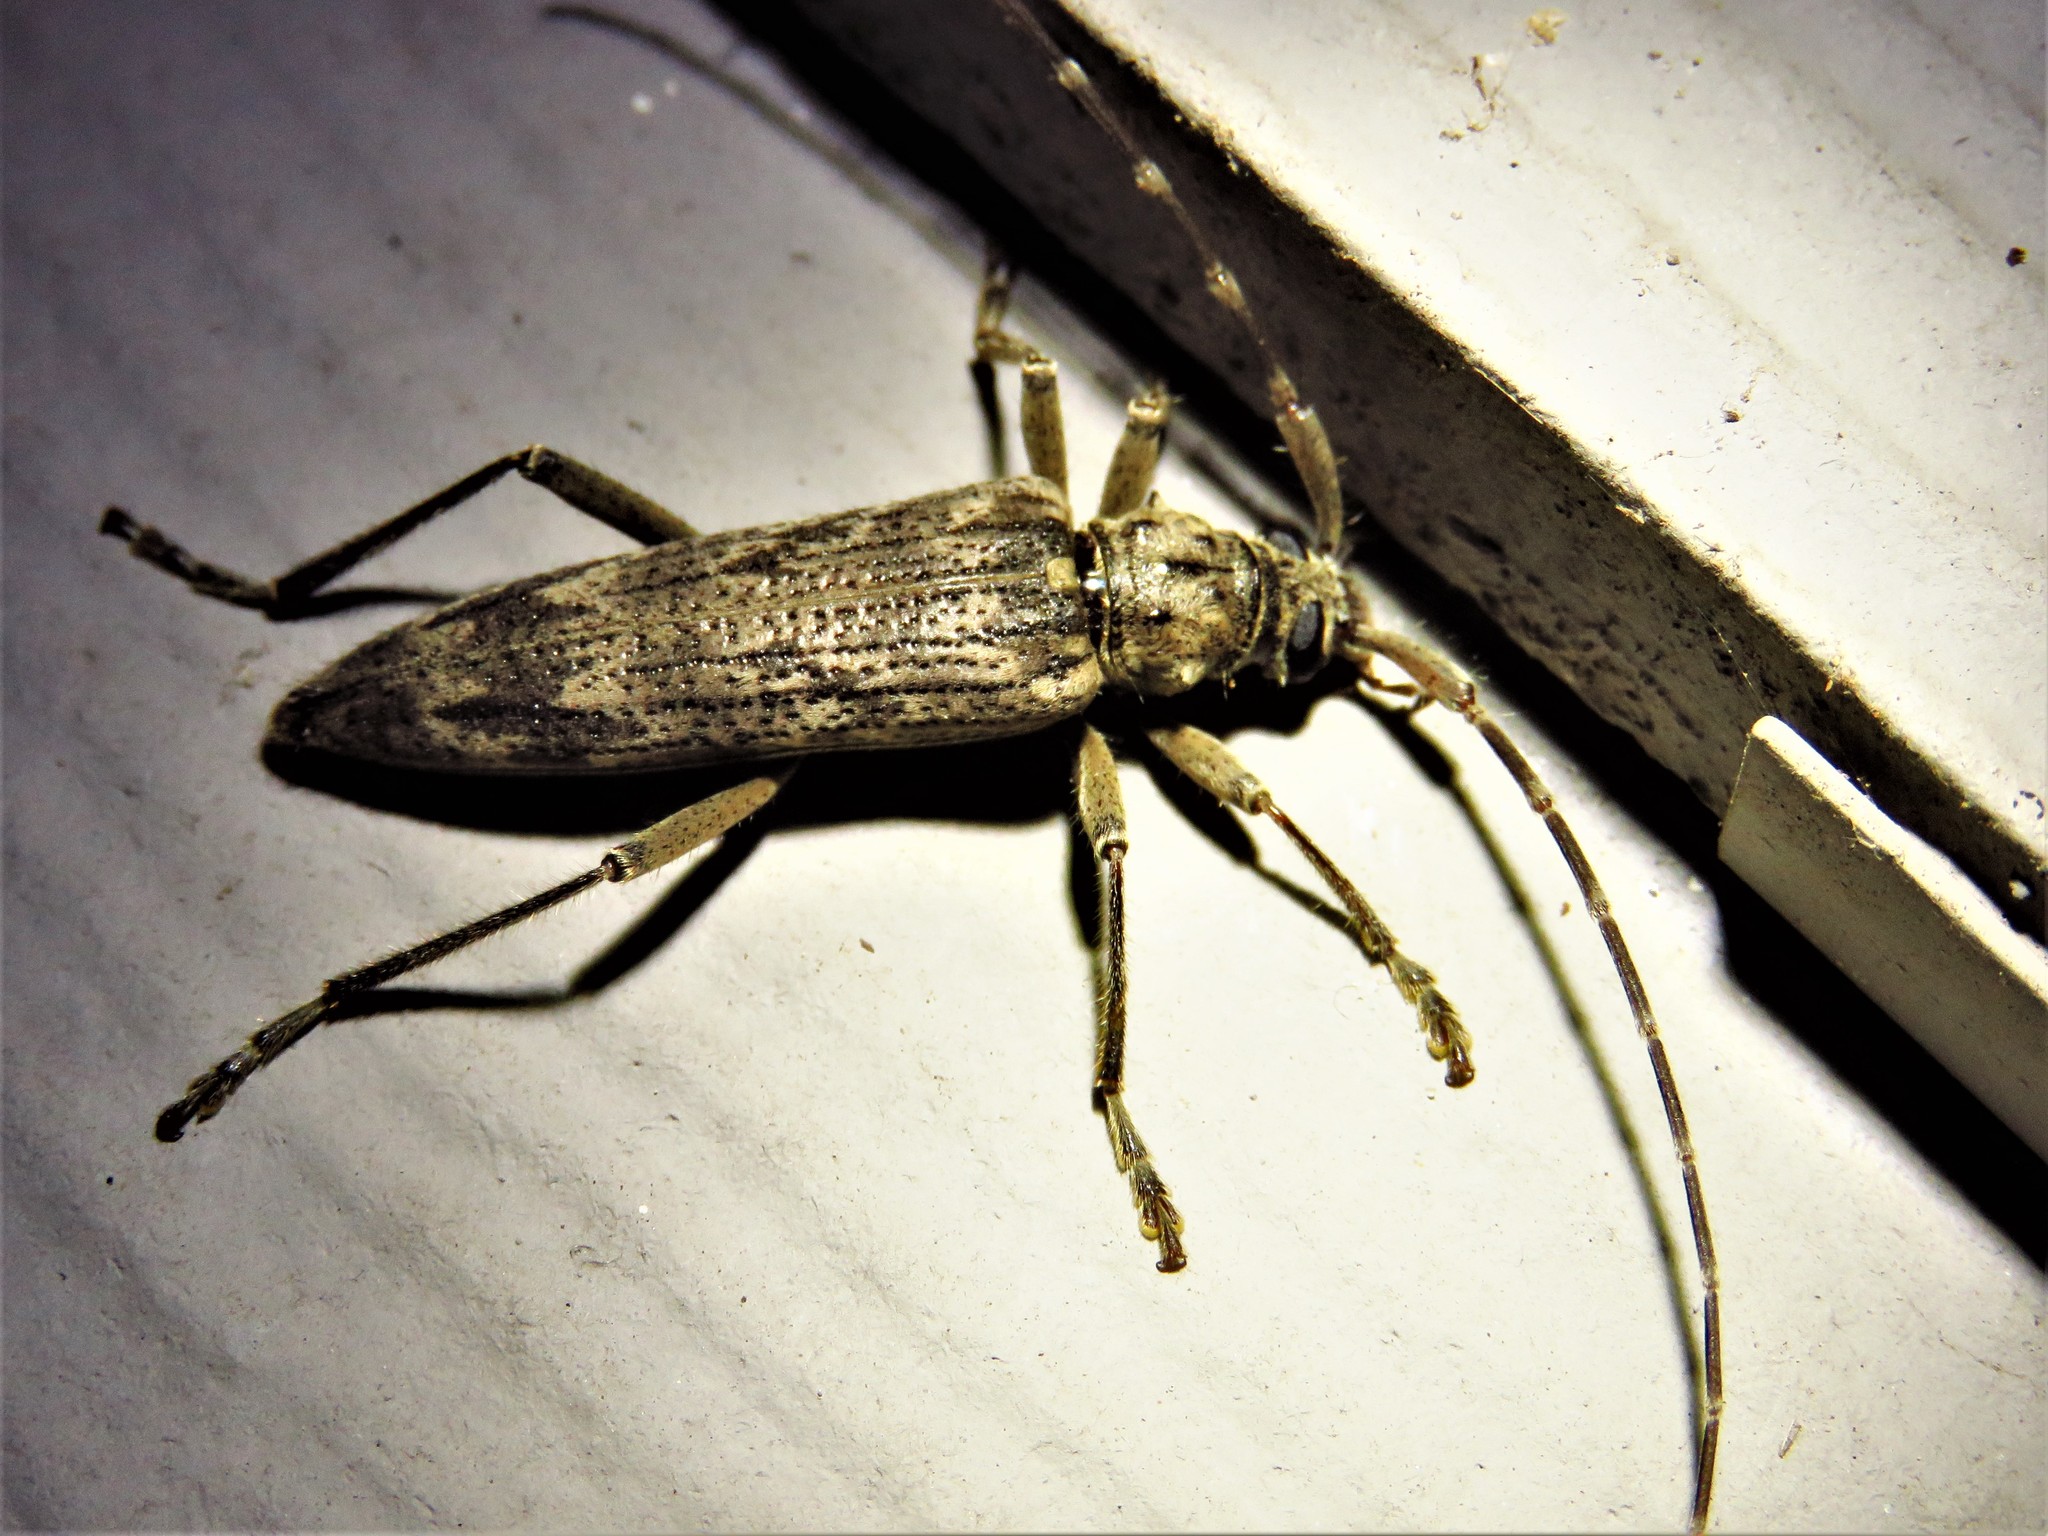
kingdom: Animalia
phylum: Arthropoda
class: Insecta
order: Coleoptera
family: Cerambycidae
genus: Elytrimitatrix
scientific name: Elytrimitatrix undata
